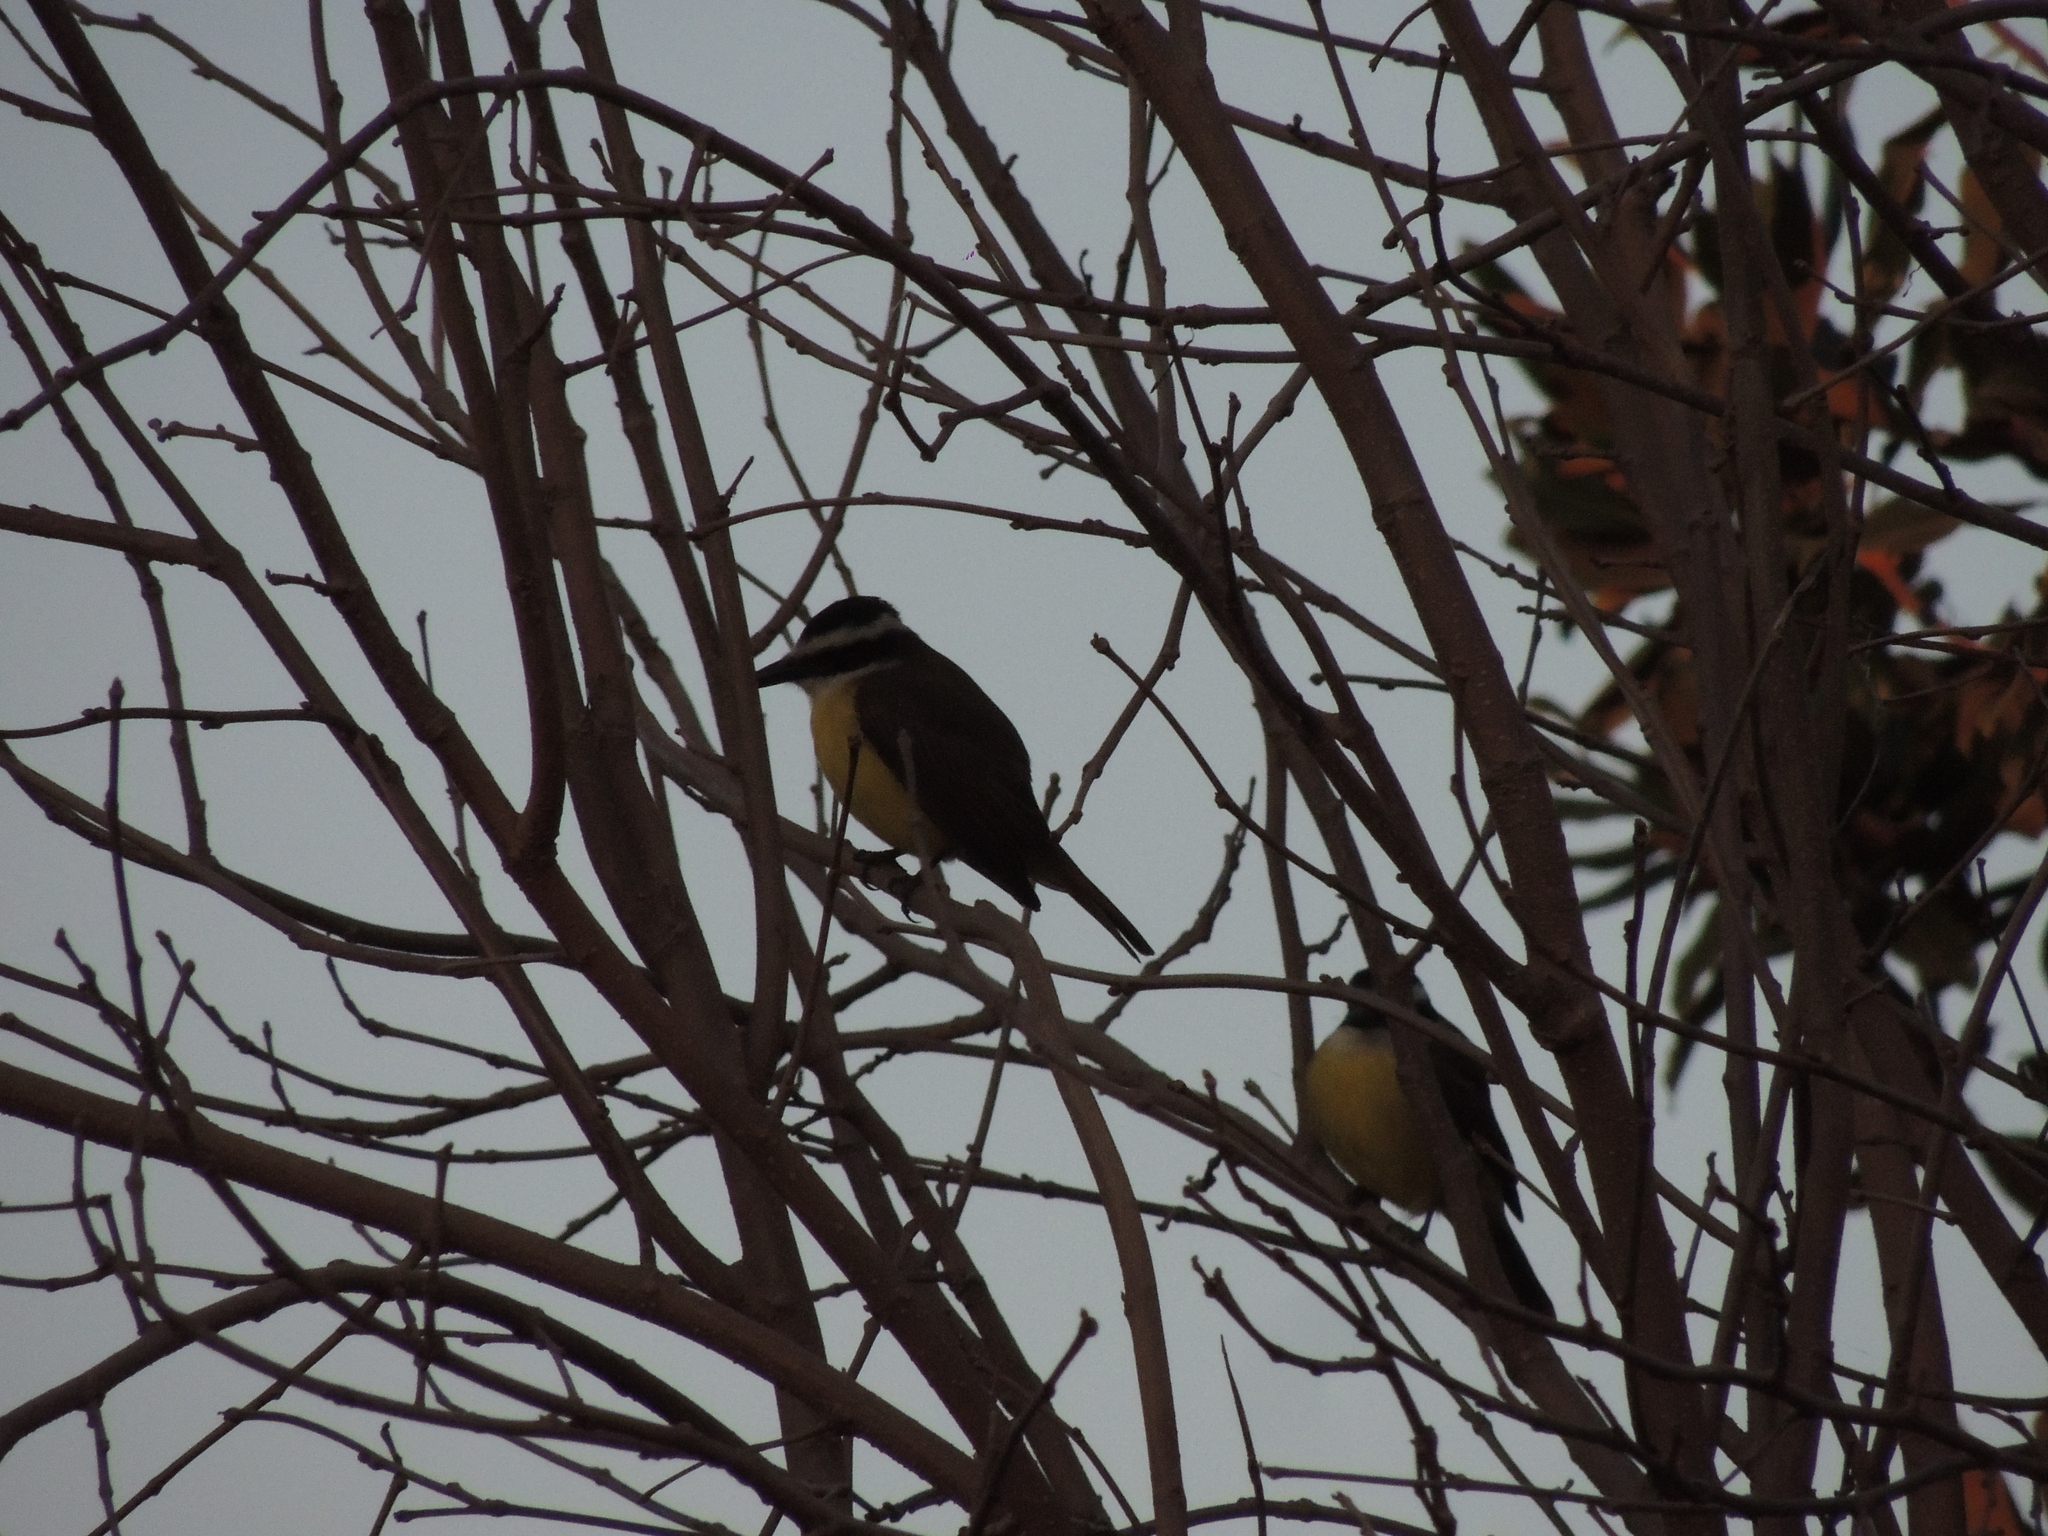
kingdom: Animalia
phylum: Chordata
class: Aves
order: Passeriformes
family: Tyrannidae
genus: Pitangus
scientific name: Pitangus sulphuratus
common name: Great kiskadee
